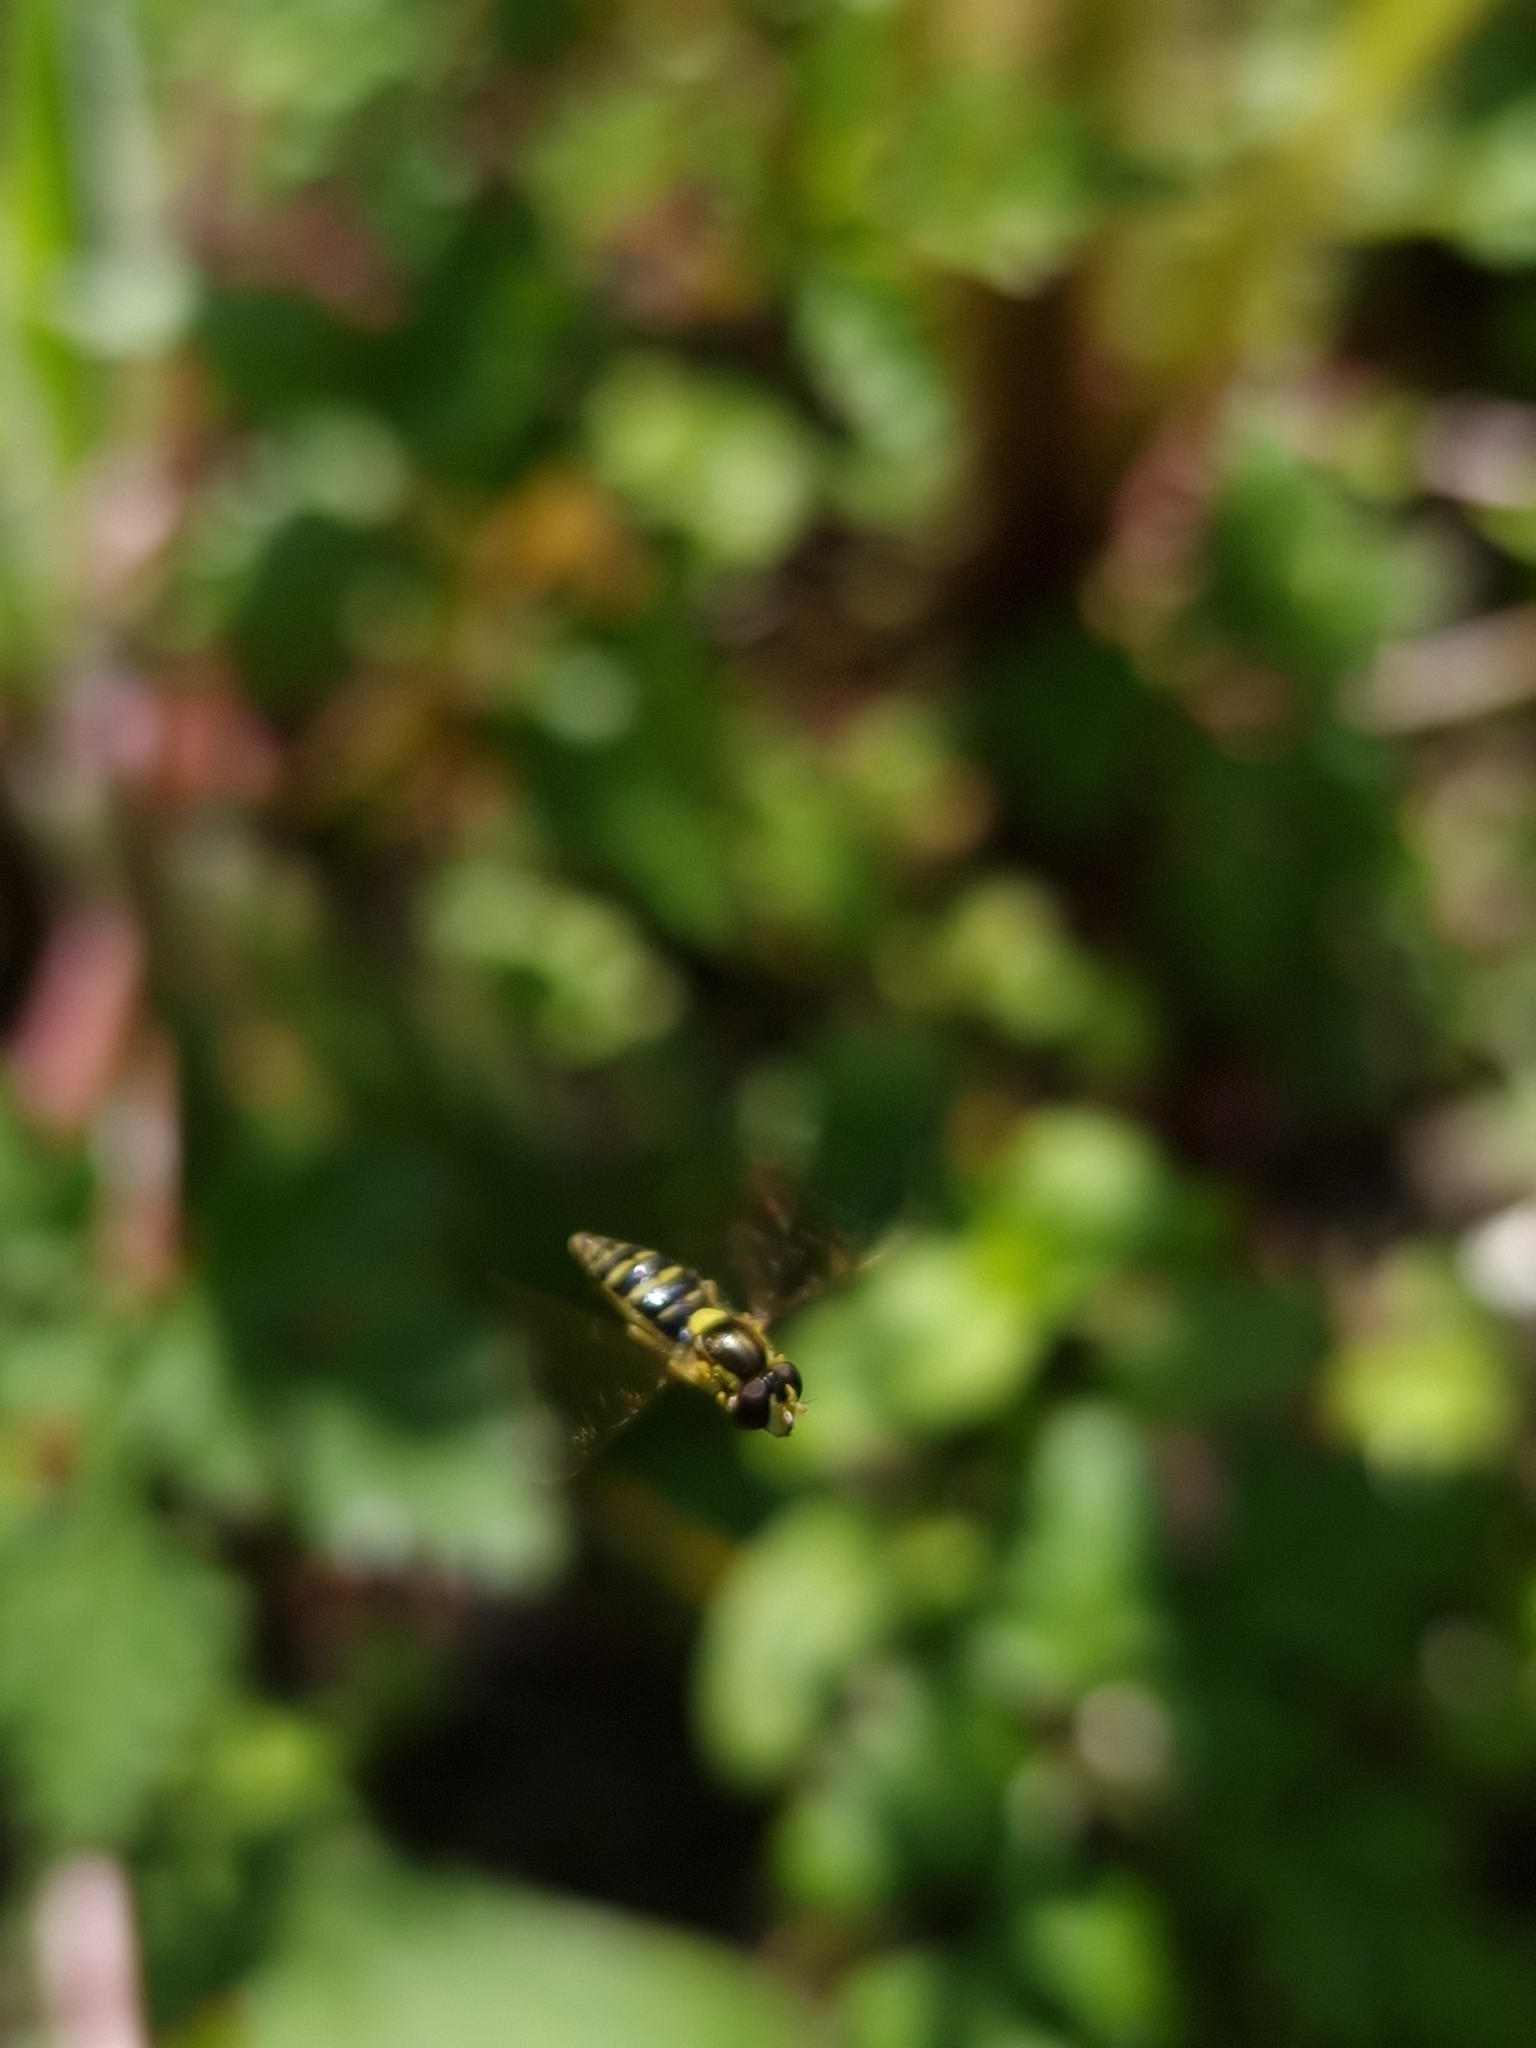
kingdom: Animalia
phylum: Arthropoda
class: Insecta
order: Diptera
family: Syrphidae
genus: Sphaerophoria
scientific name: Sphaerophoria
